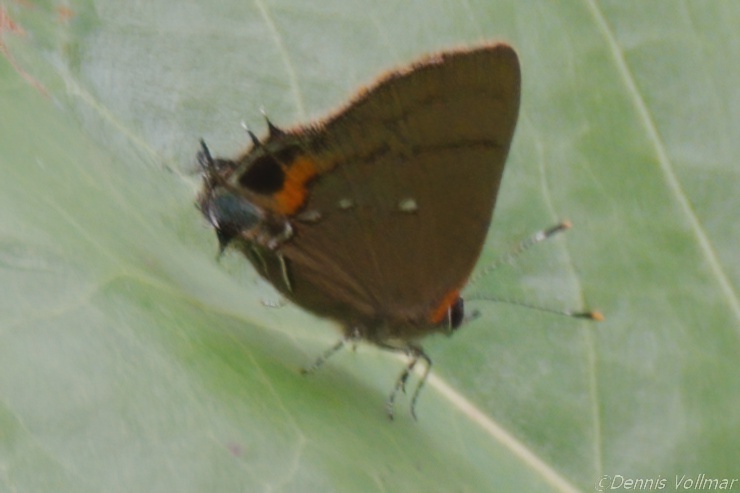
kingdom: Animalia
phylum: Arthropoda
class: Insecta
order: Lepidoptera
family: Lycaenidae
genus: Thecla
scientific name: Thecla angelia
